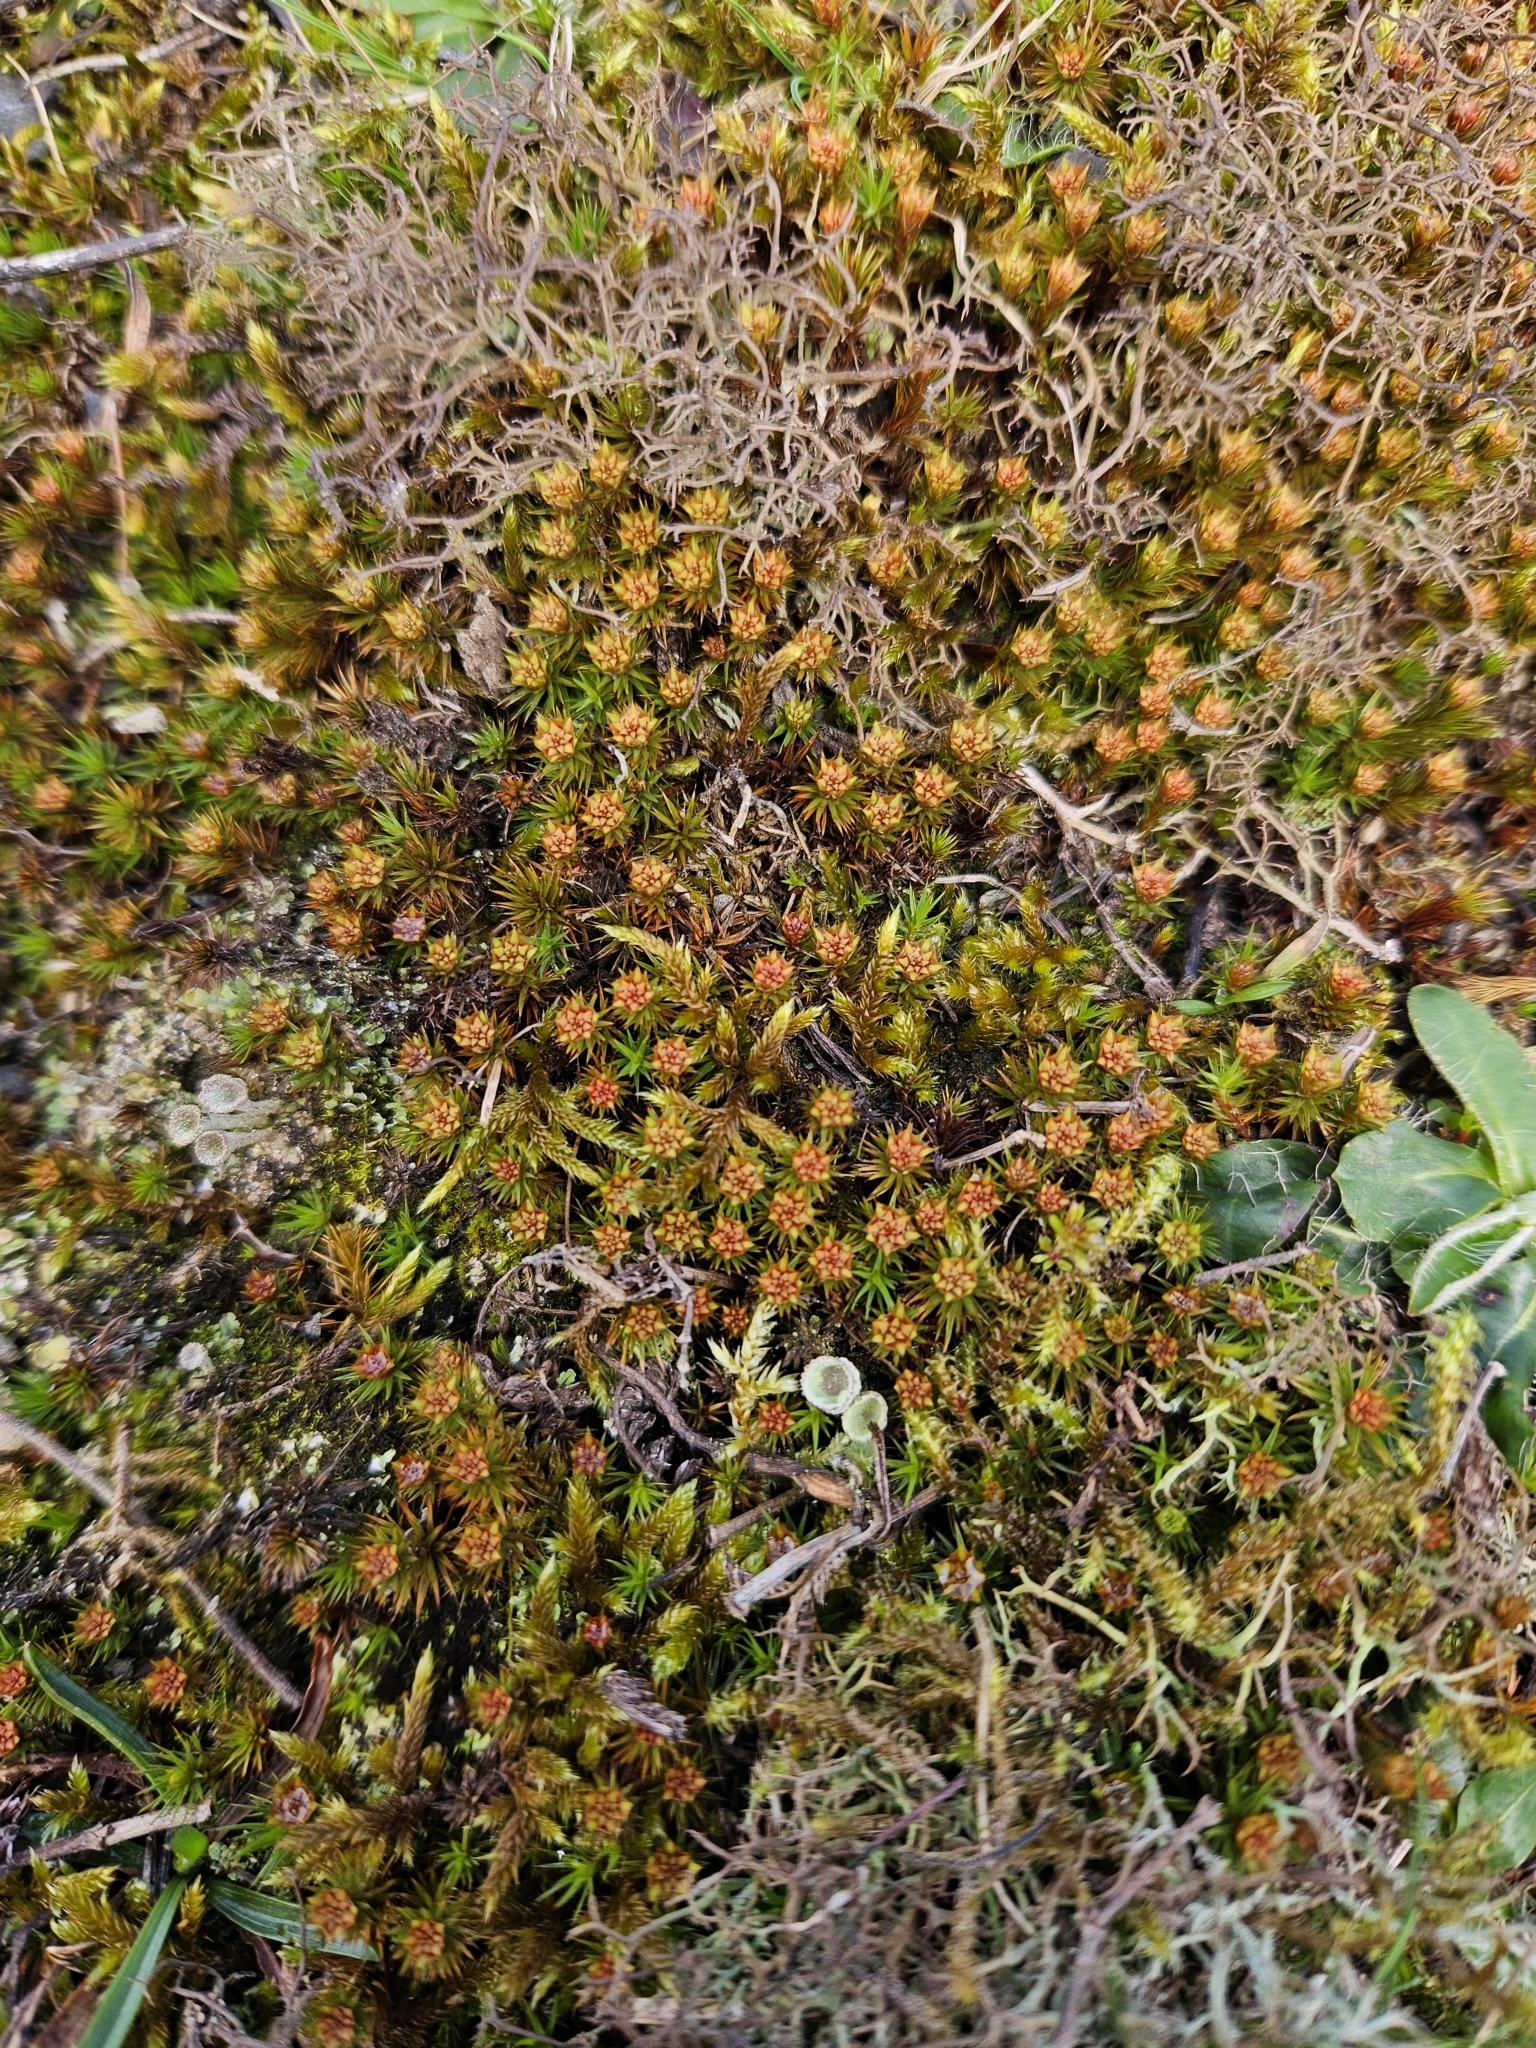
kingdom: Plantae
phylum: Bryophyta
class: Polytrichopsida
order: Polytrichales
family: Polytrichaceae
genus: Polytrichum
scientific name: Polytrichum juniperinum
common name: Juniper haircap moss
